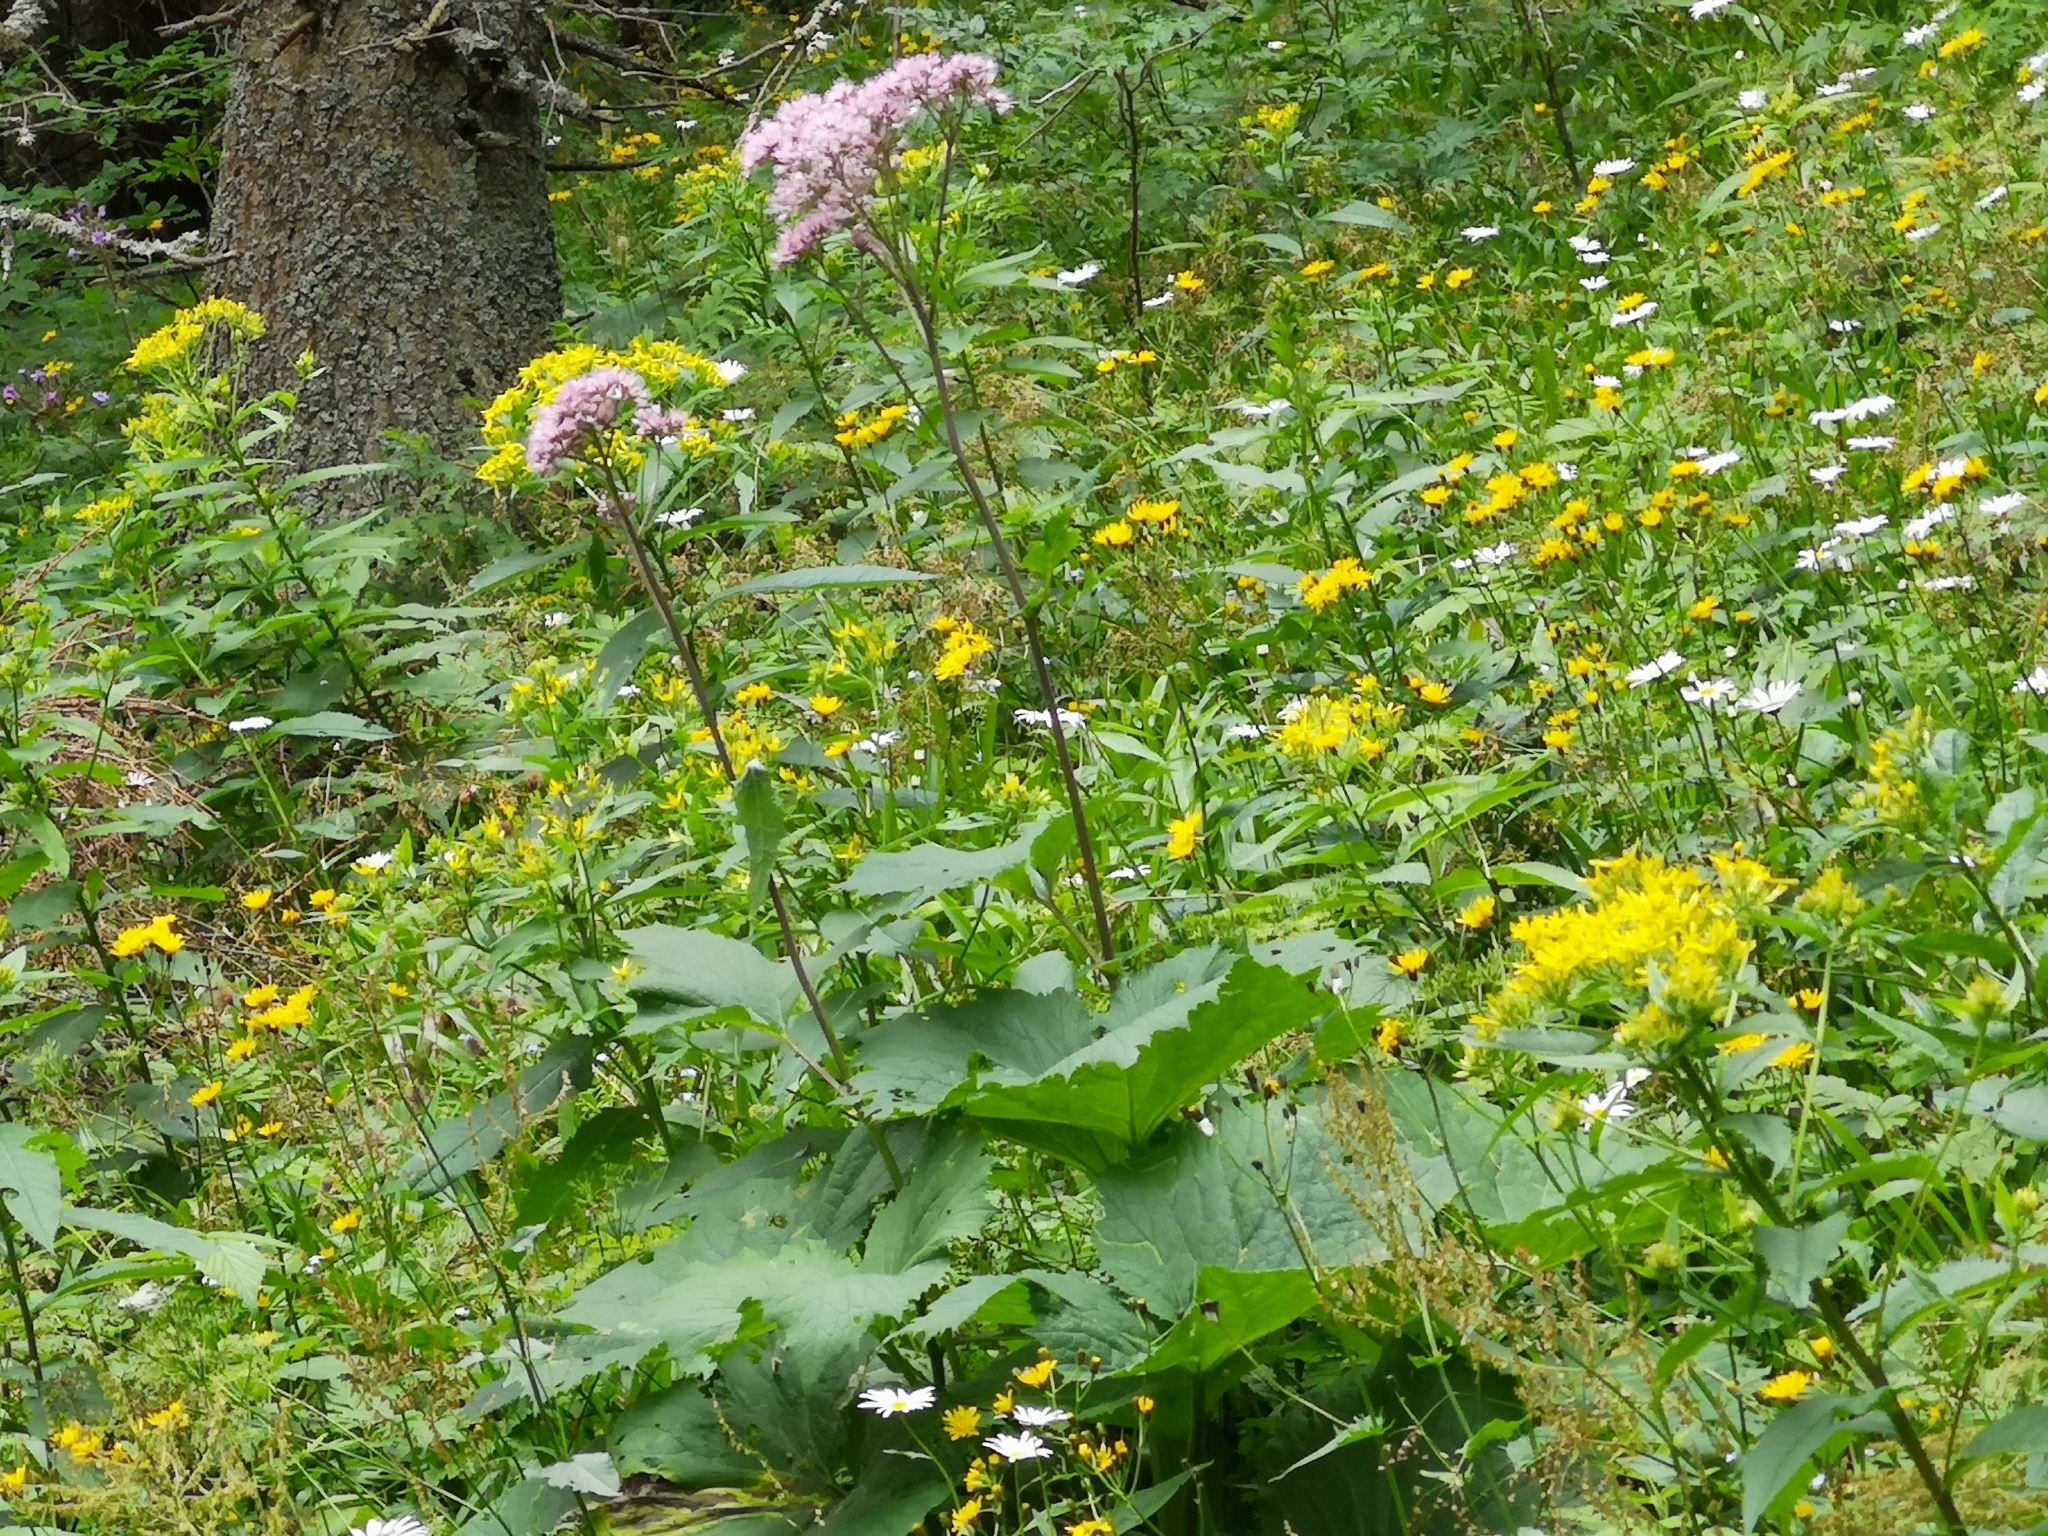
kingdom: Plantae
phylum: Tracheophyta
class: Magnoliopsida
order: Asterales
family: Asteraceae
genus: Adenostyles
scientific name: Adenostyles alliariae
